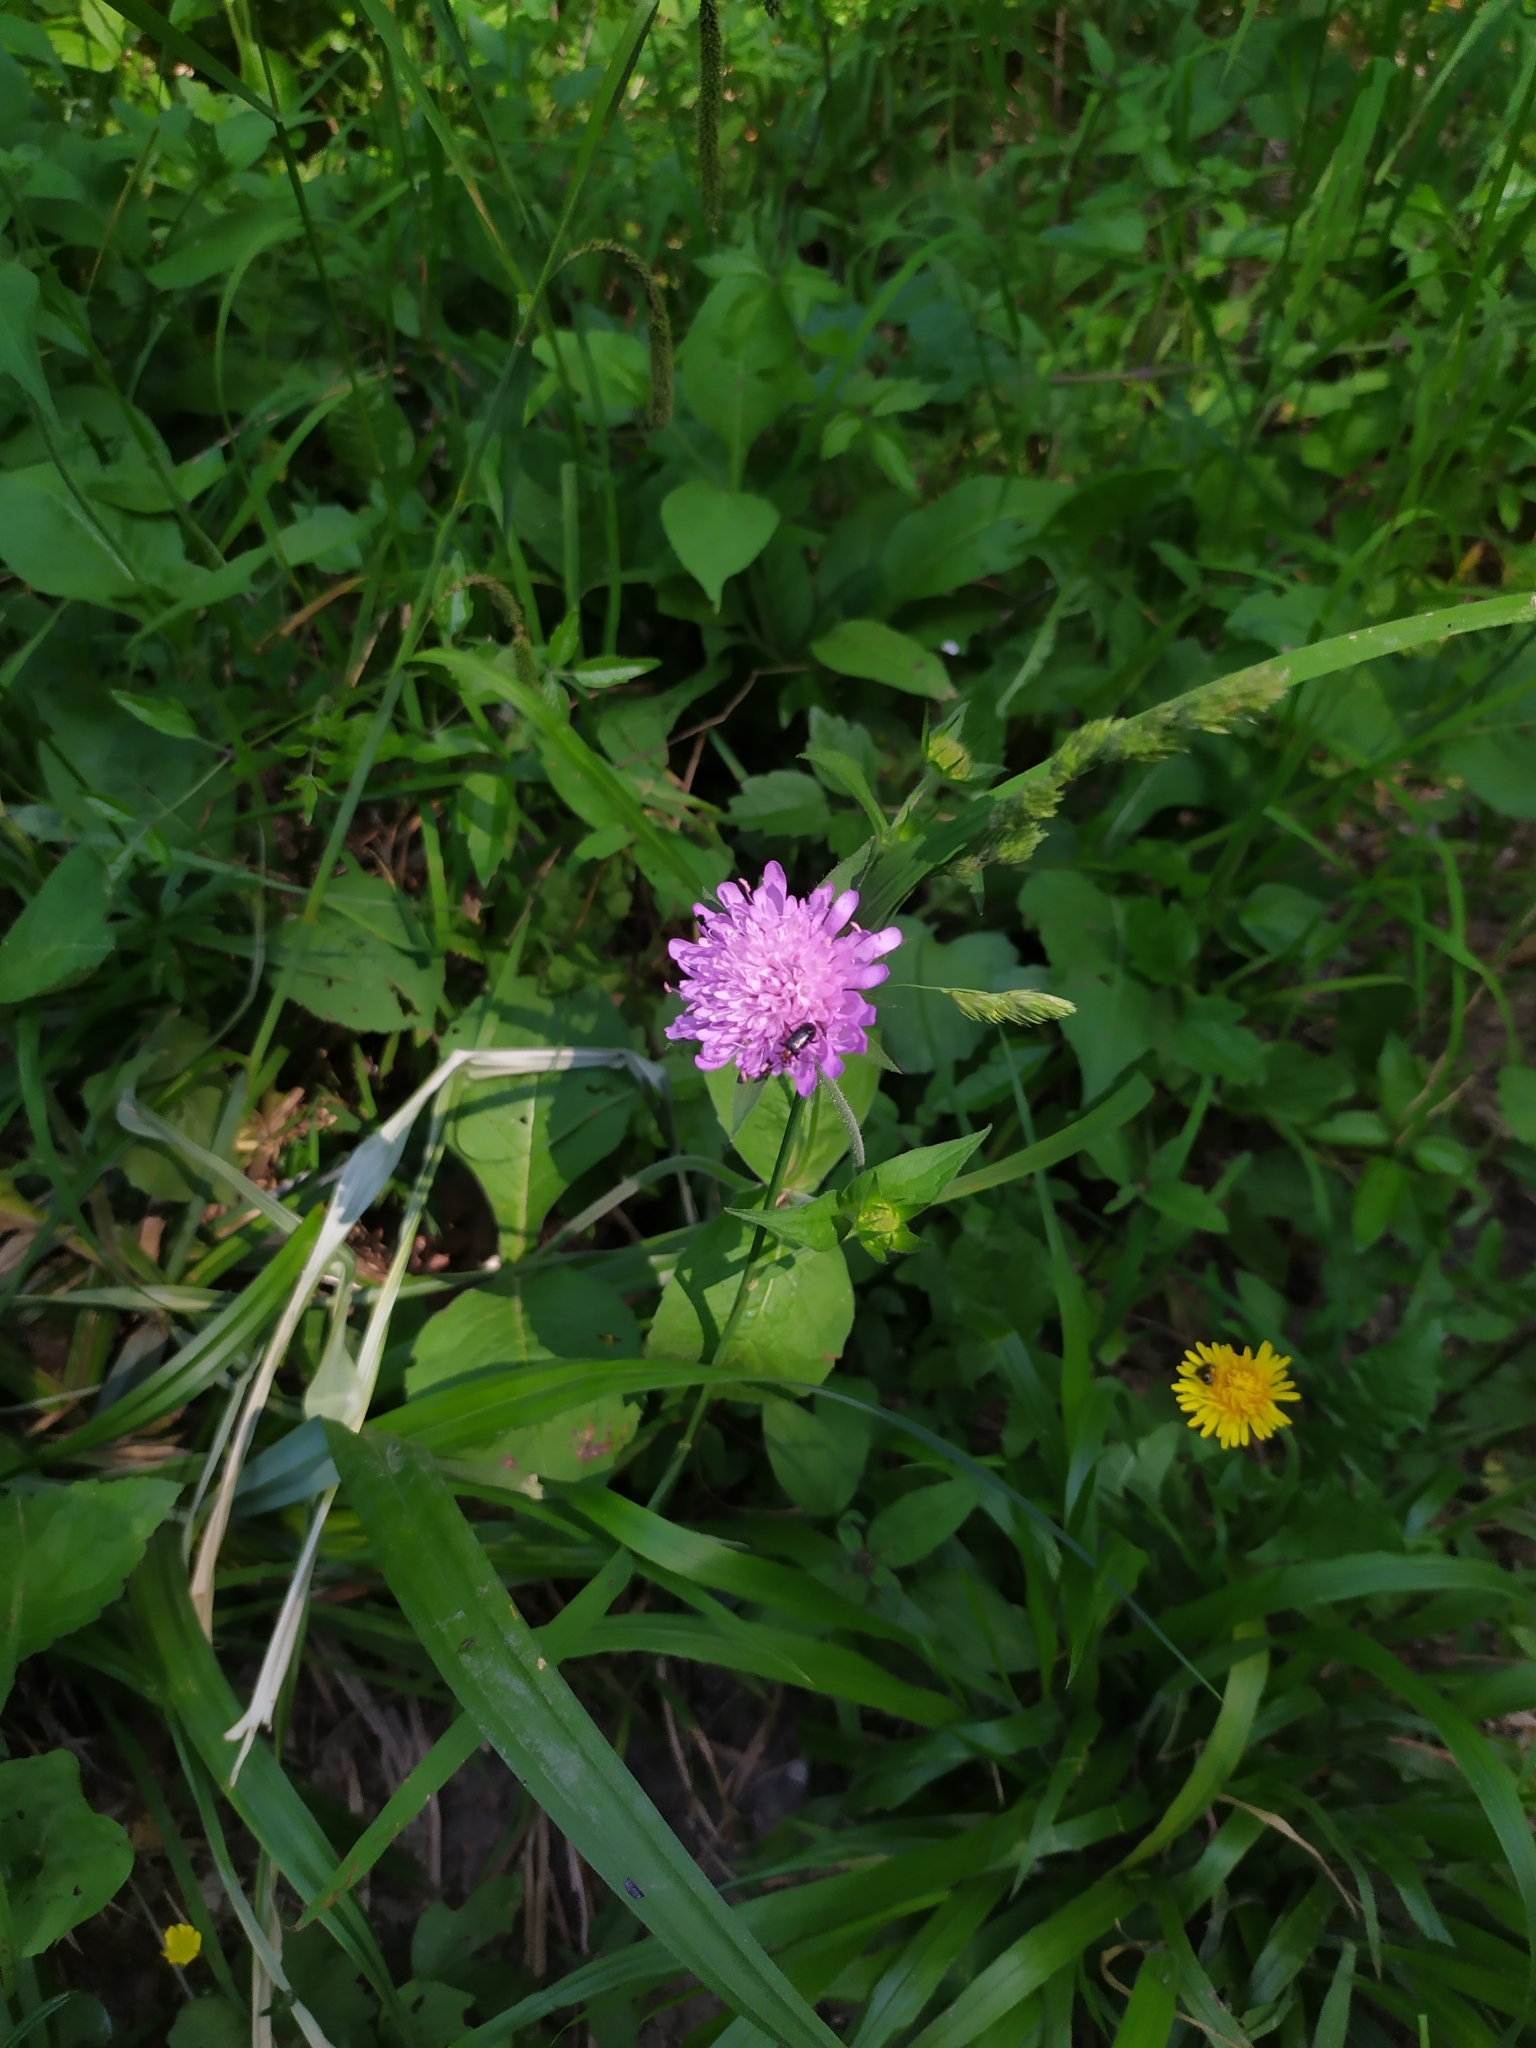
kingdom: Plantae
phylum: Tracheophyta
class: Magnoliopsida
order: Dipsacales
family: Caprifoliaceae
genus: Knautia
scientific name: Knautia drymeia
